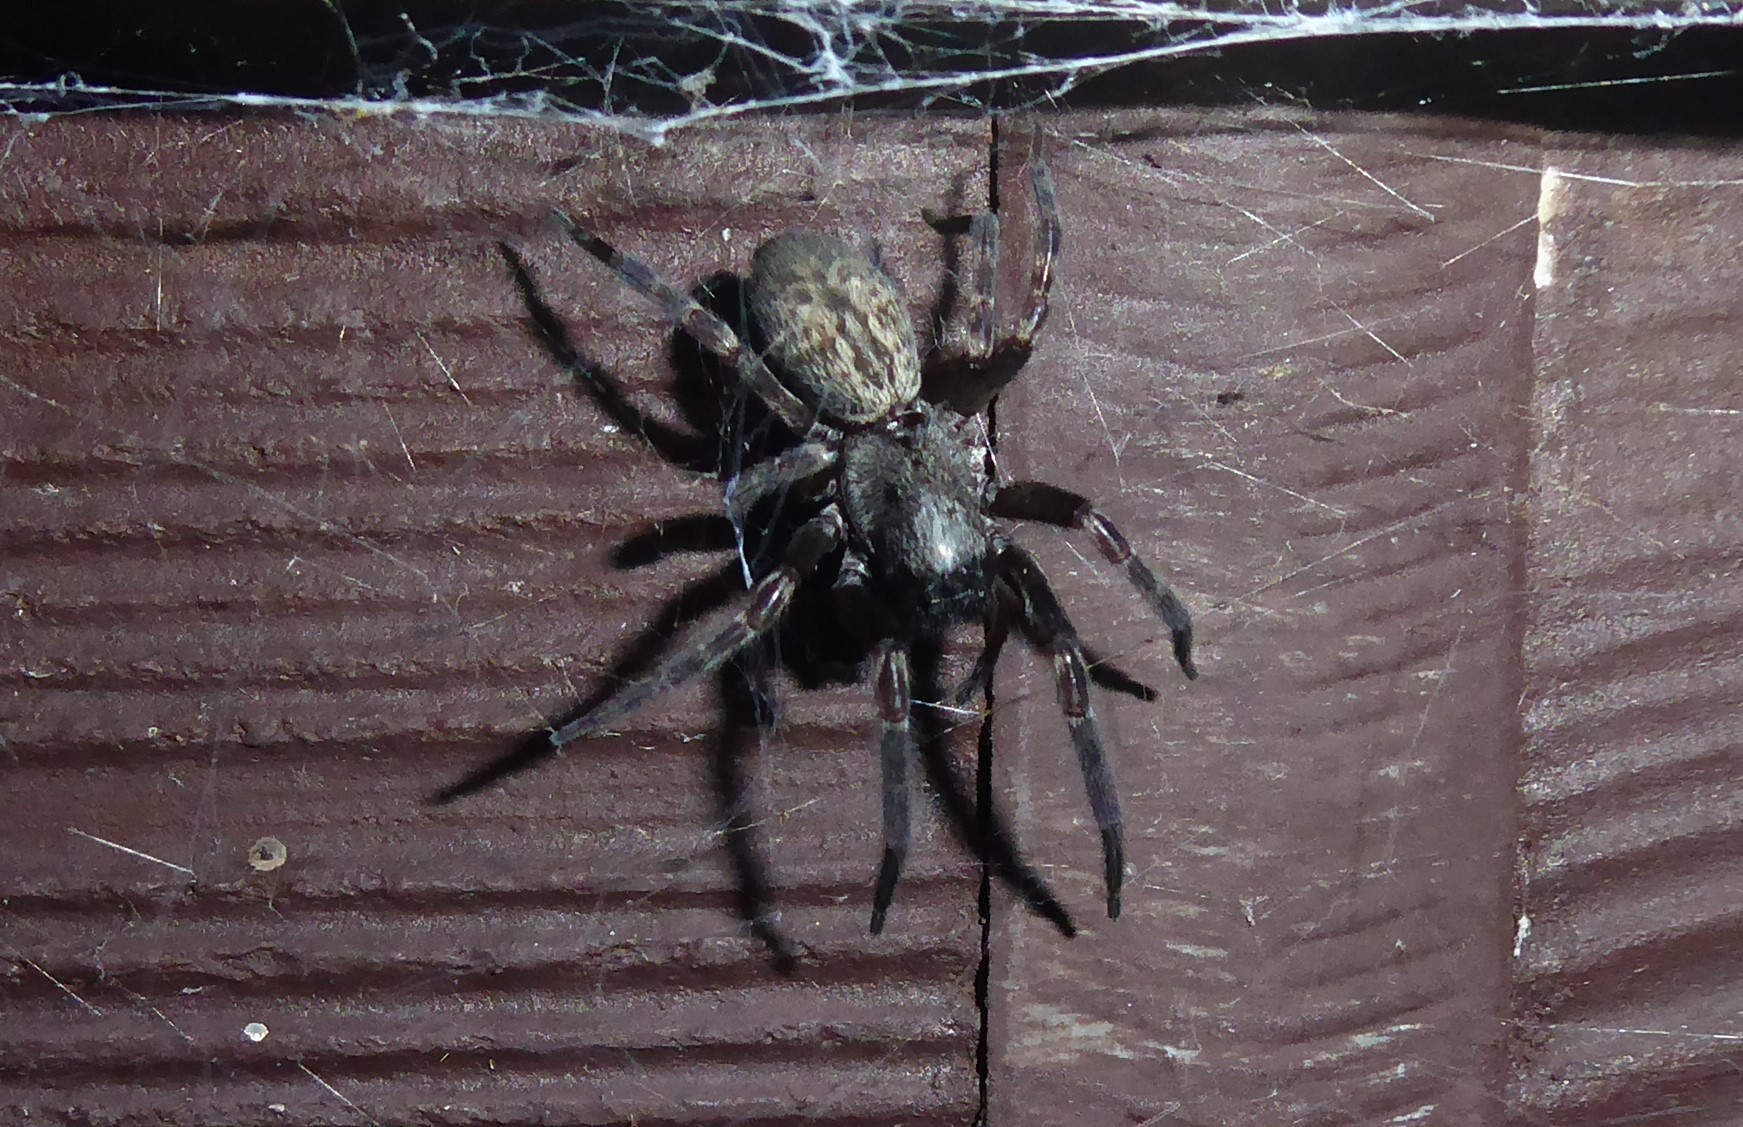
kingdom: Animalia
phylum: Arthropoda
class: Arachnida
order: Araneae
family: Desidae
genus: Badumna
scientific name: Badumna longinqua
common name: Gray house spider
